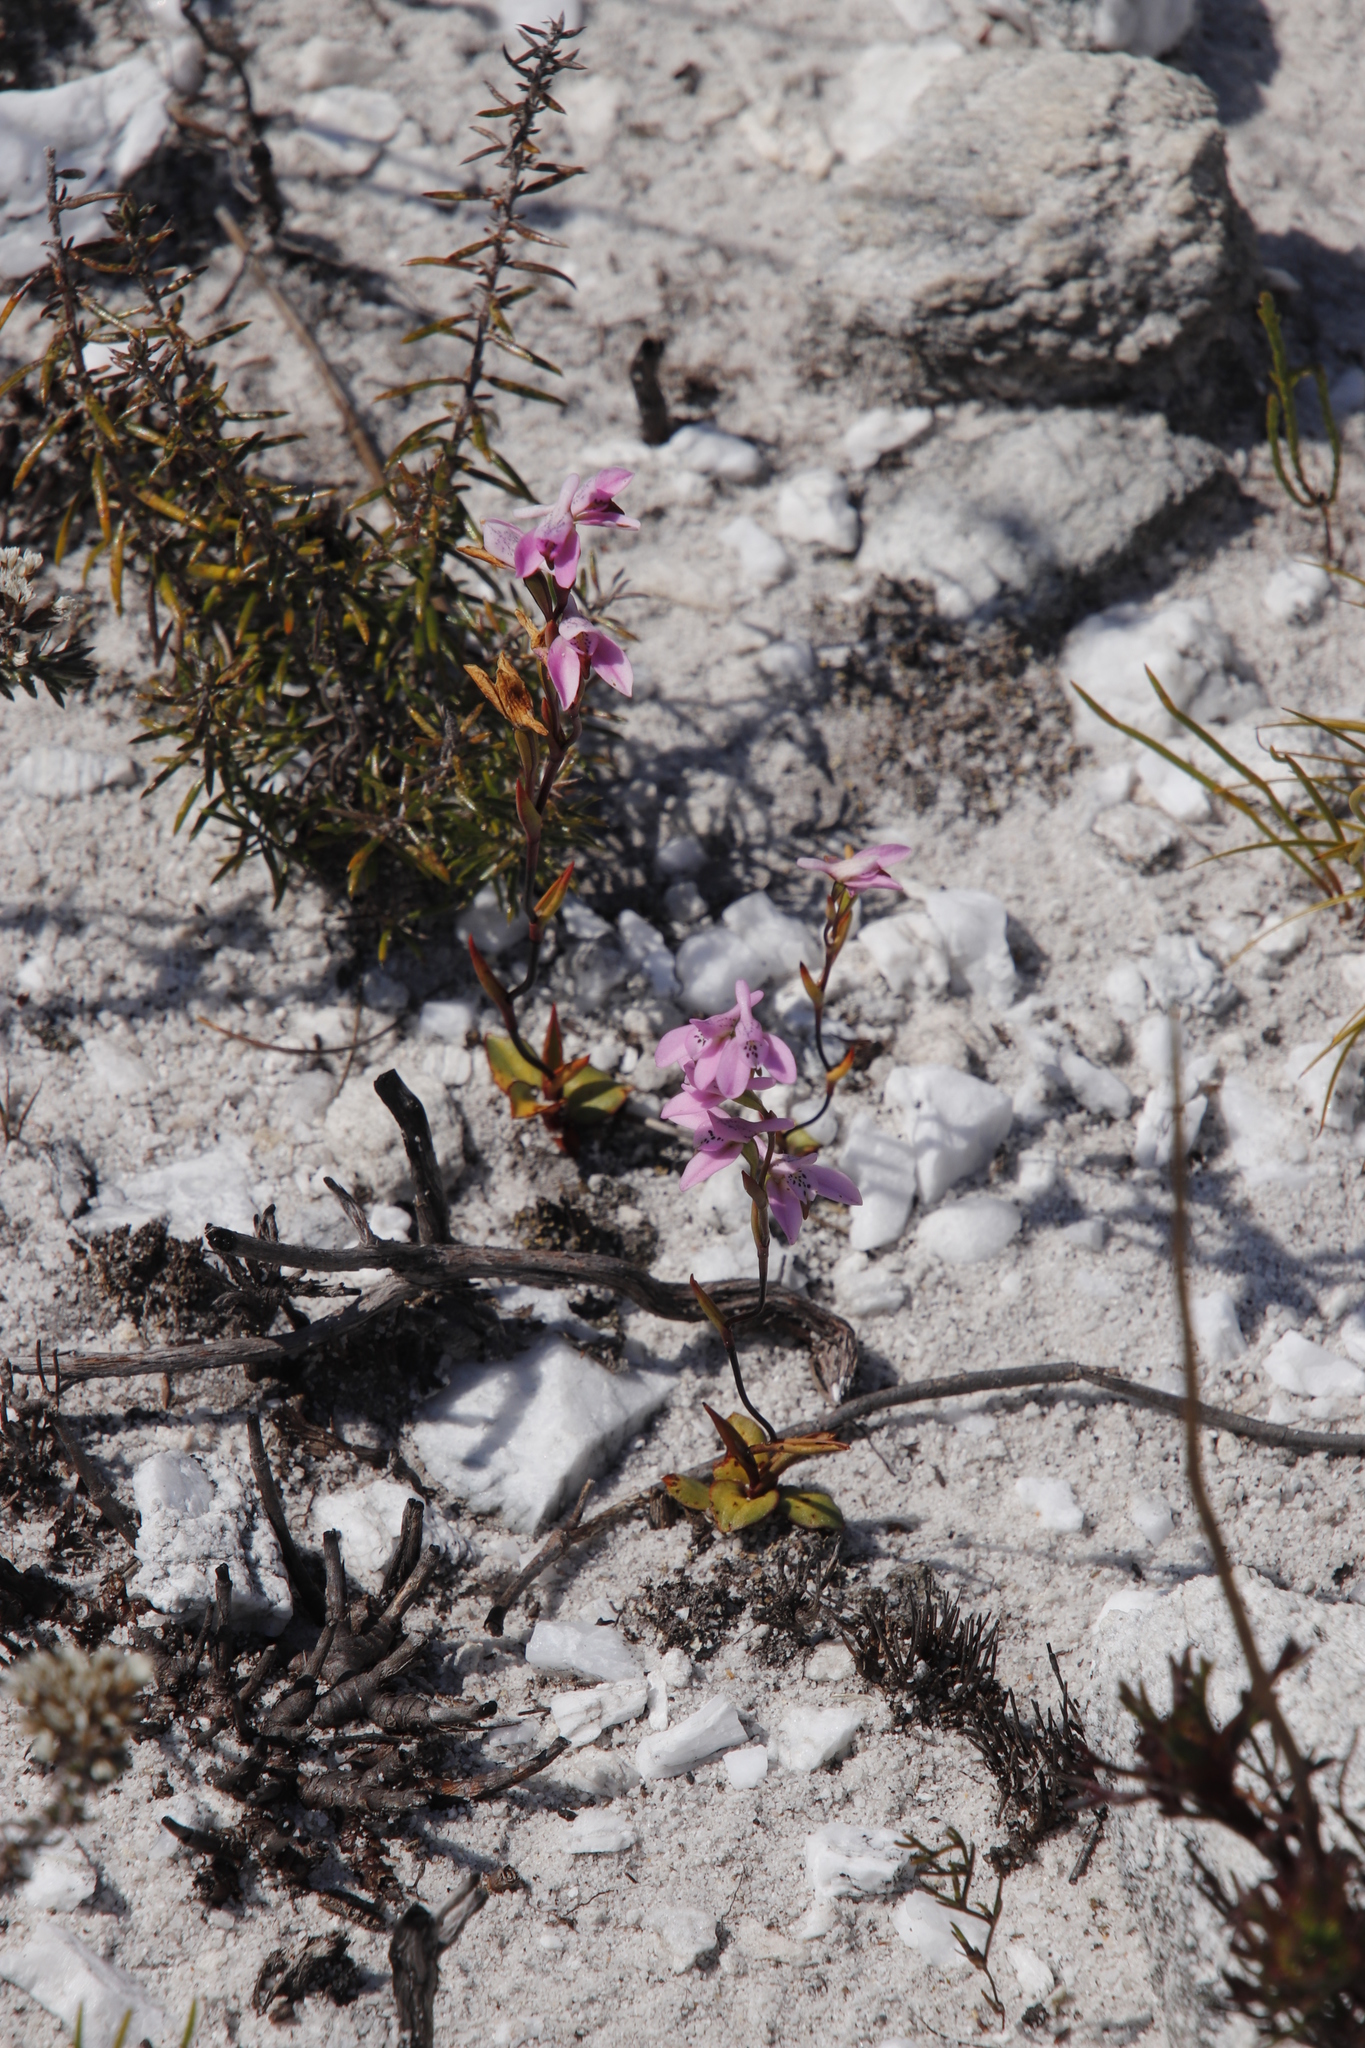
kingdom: Plantae
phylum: Tracheophyta
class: Liliopsida
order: Asparagales
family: Orchidaceae
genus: Disa
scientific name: Disa obliqua
